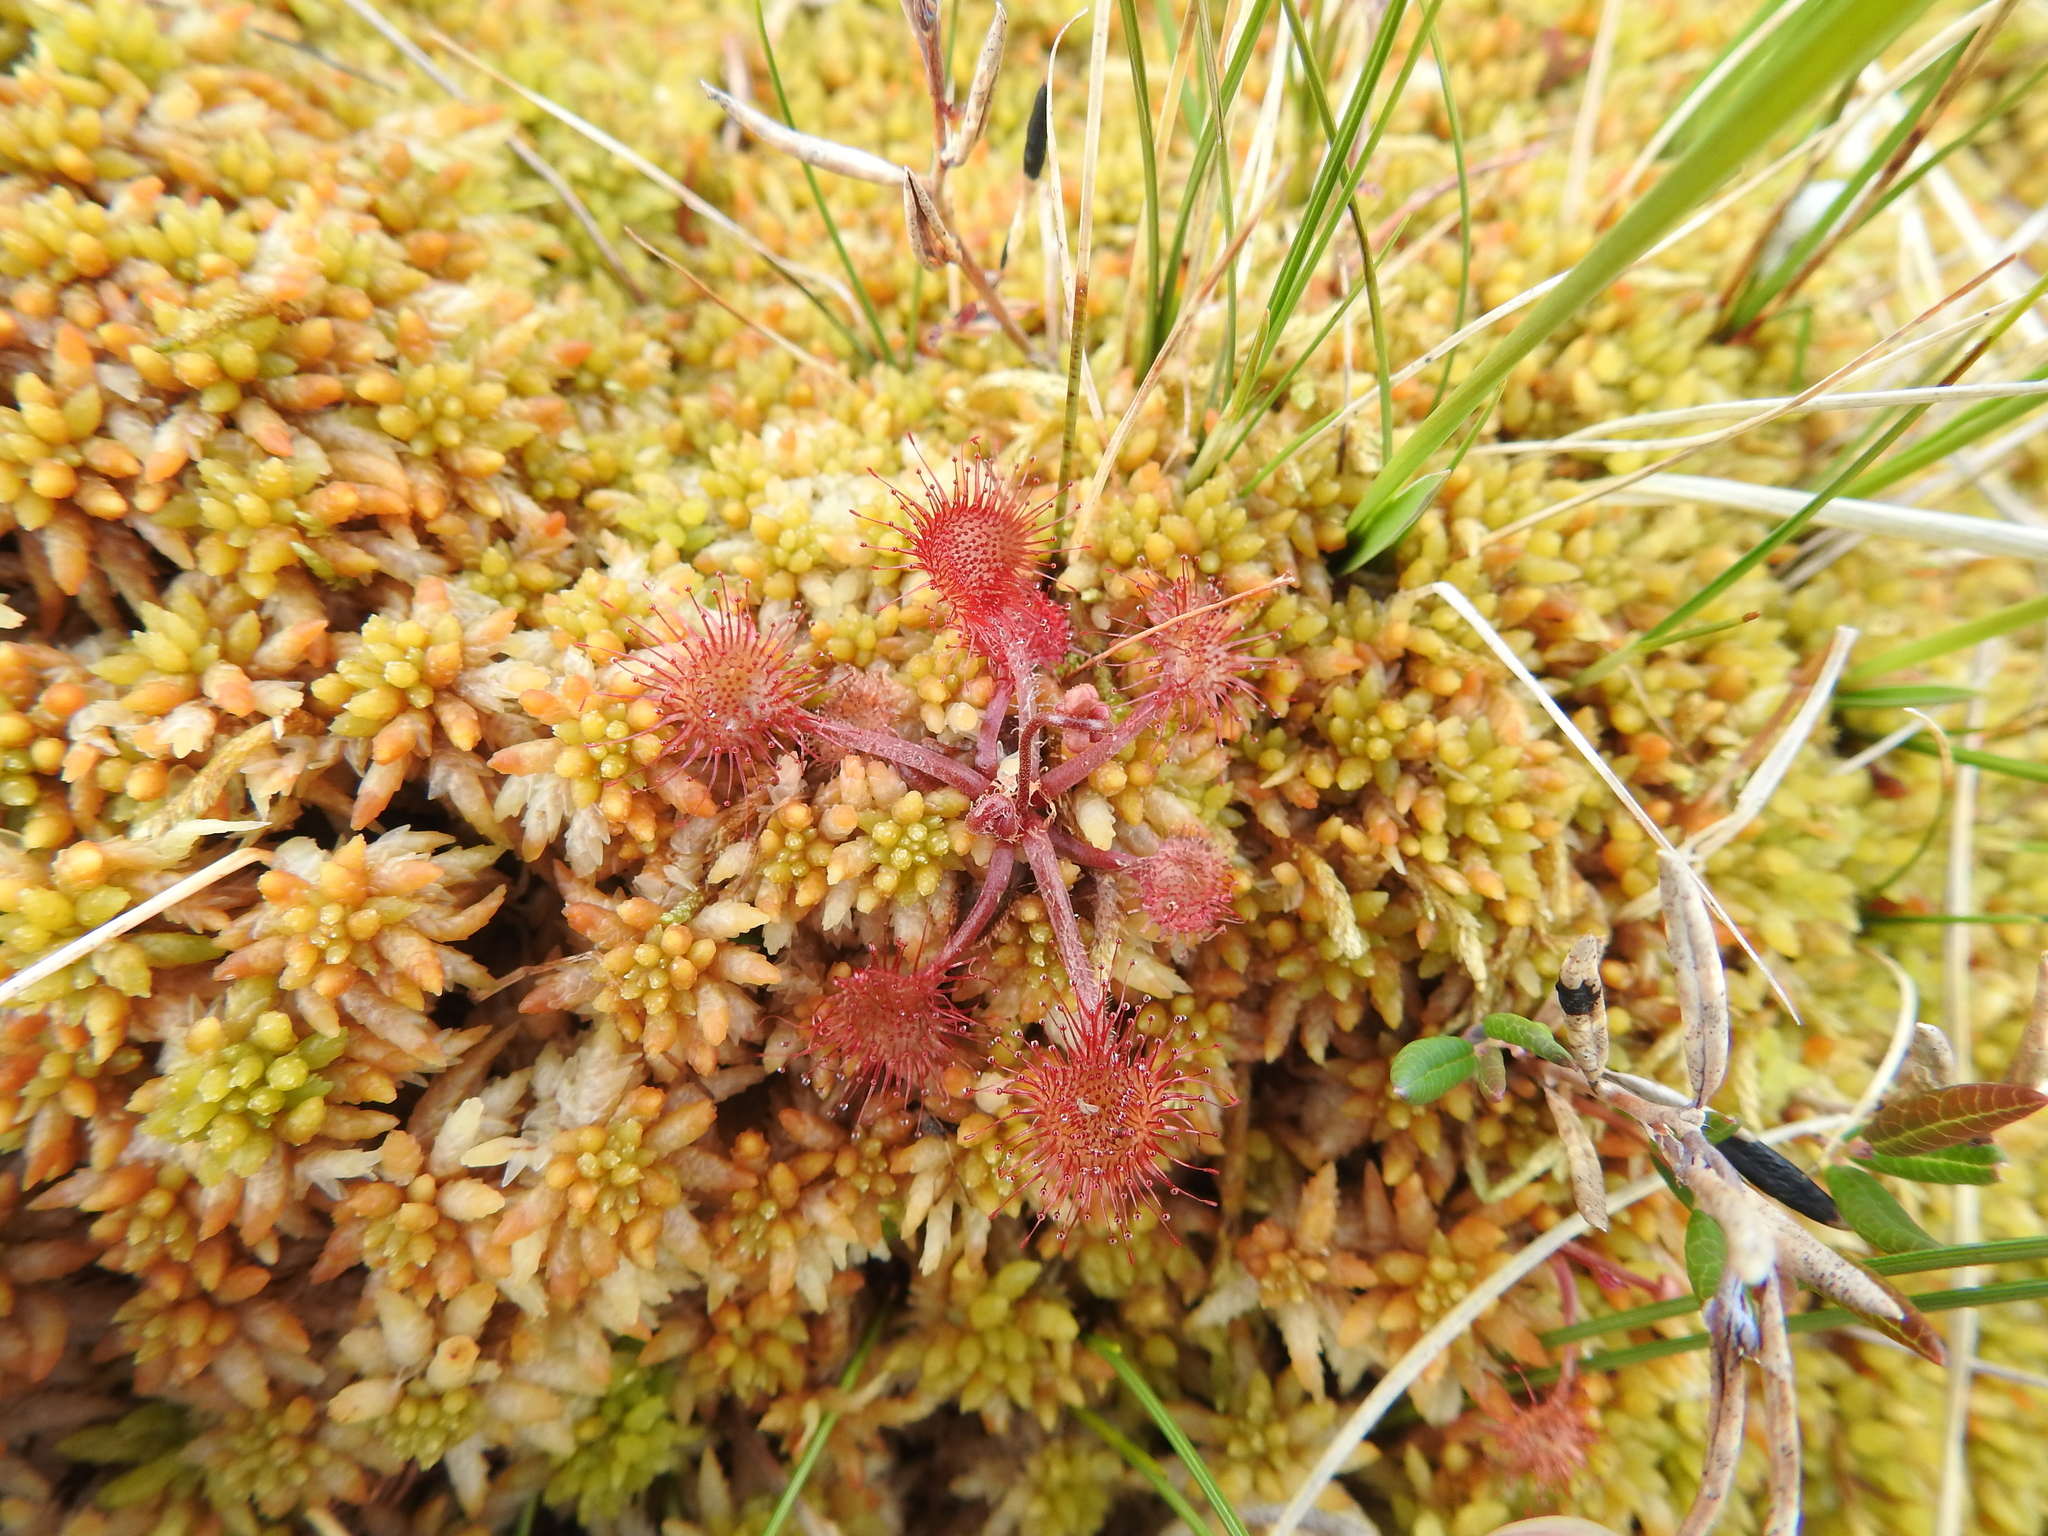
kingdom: Plantae
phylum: Tracheophyta
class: Magnoliopsida
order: Caryophyllales
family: Droseraceae
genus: Drosera
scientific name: Drosera rotundifolia
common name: Round-leaved sundew
